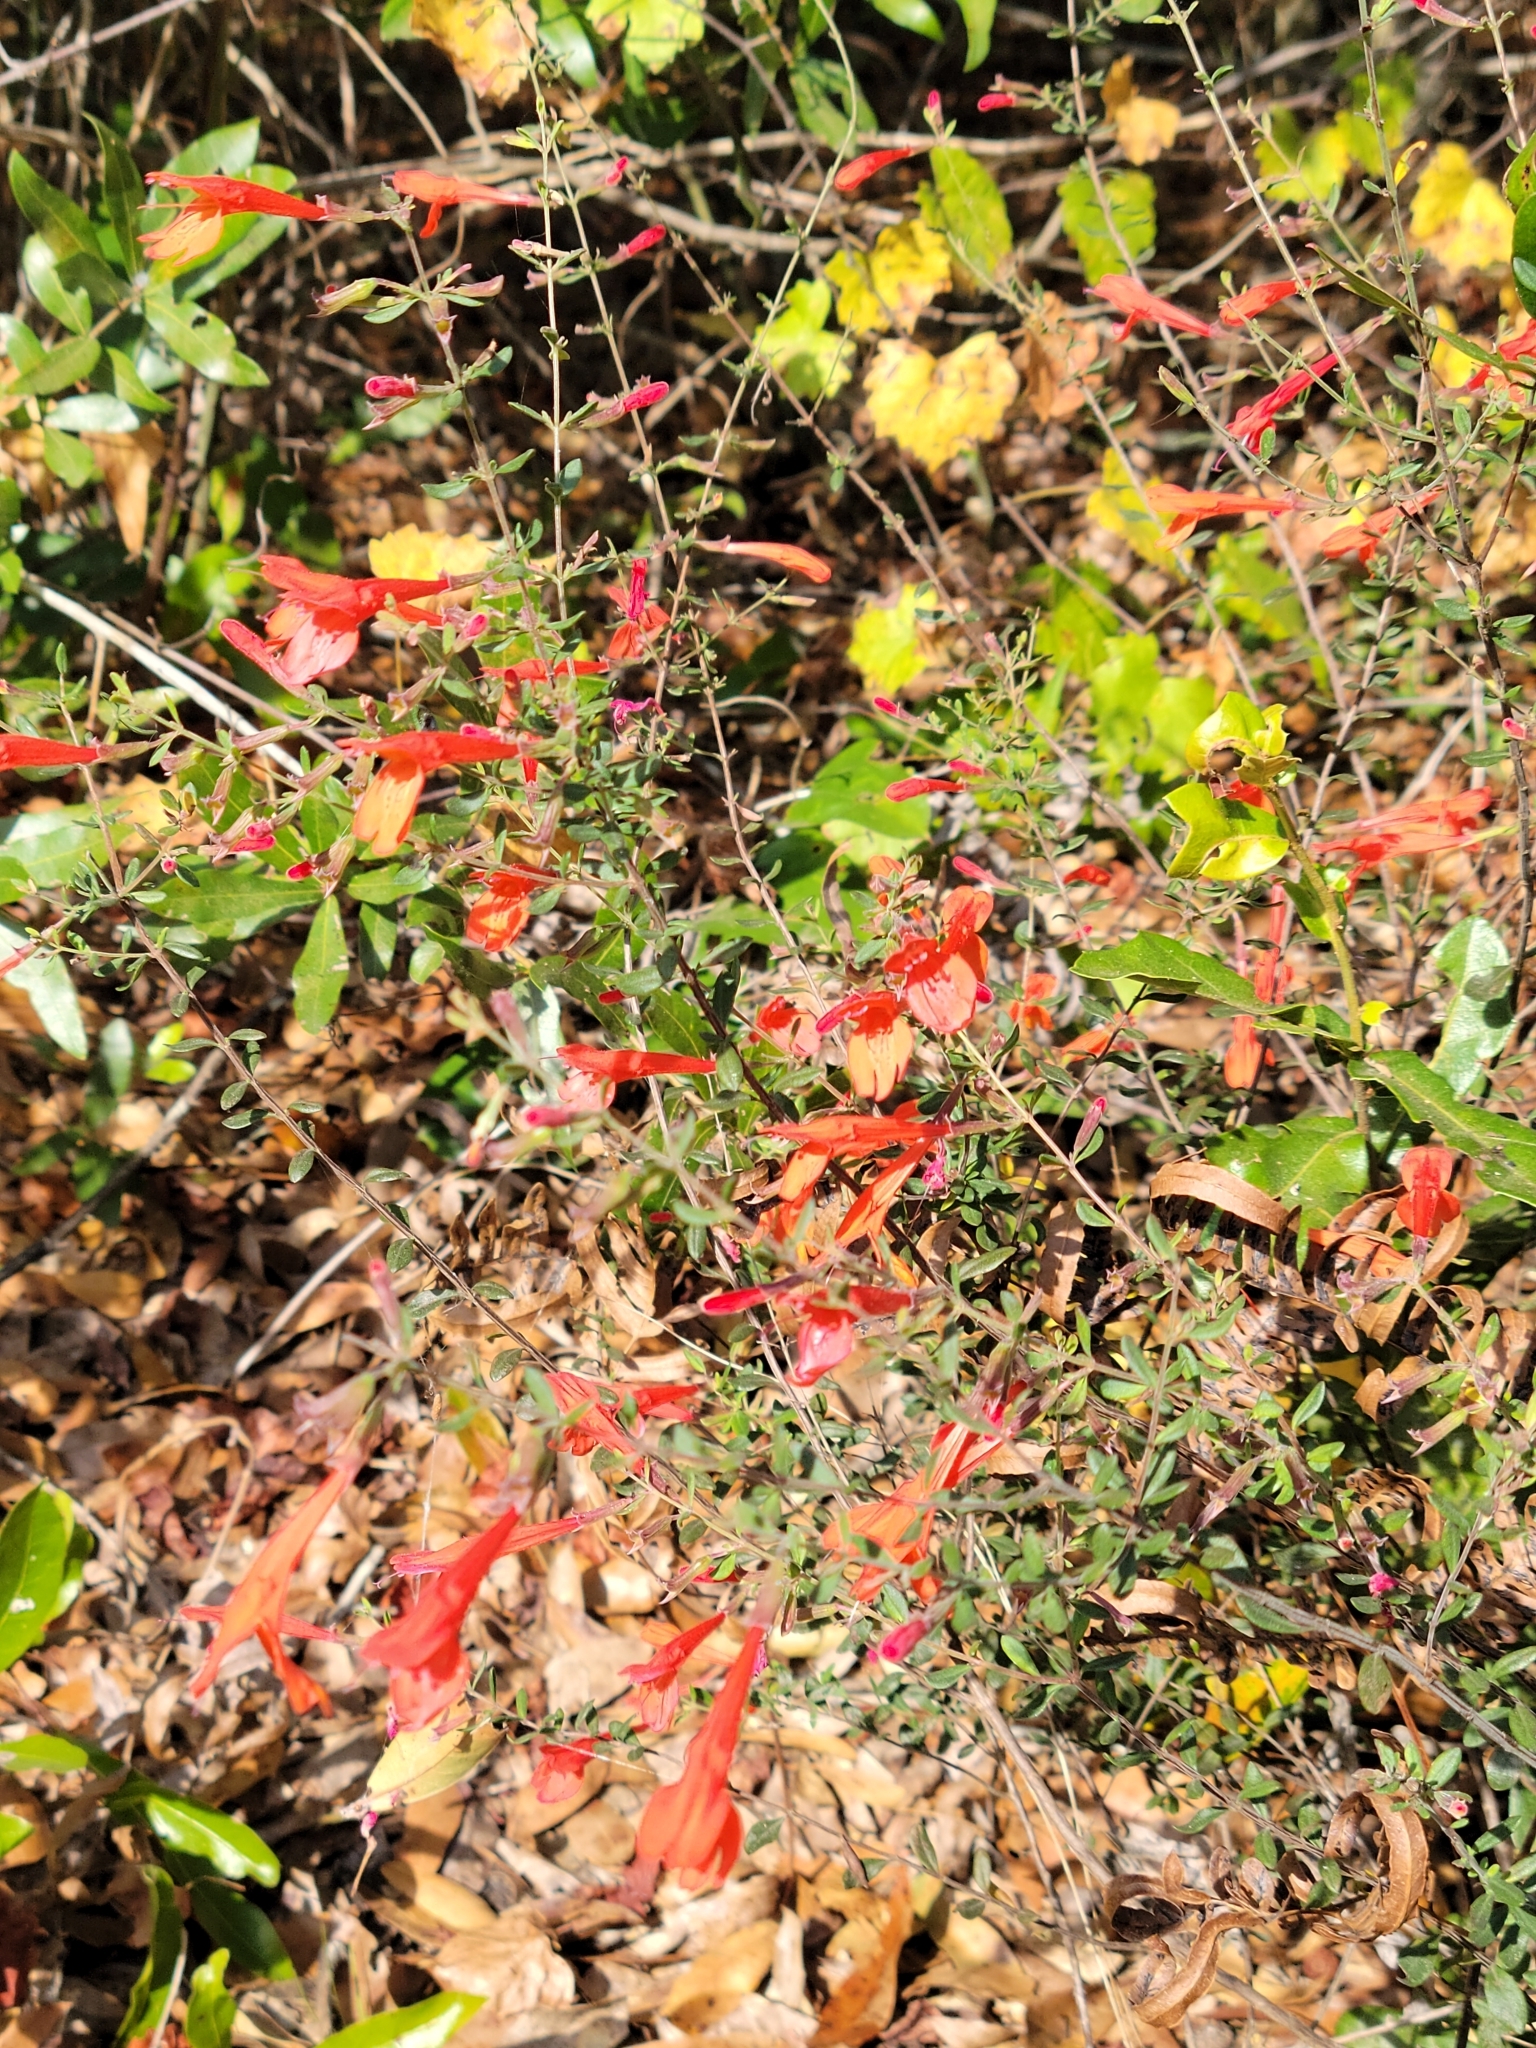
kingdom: Plantae
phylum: Tracheophyta
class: Magnoliopsida
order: Lamiales
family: Lamiaceae
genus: Clinopodium
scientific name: Clinopodium coccineum
